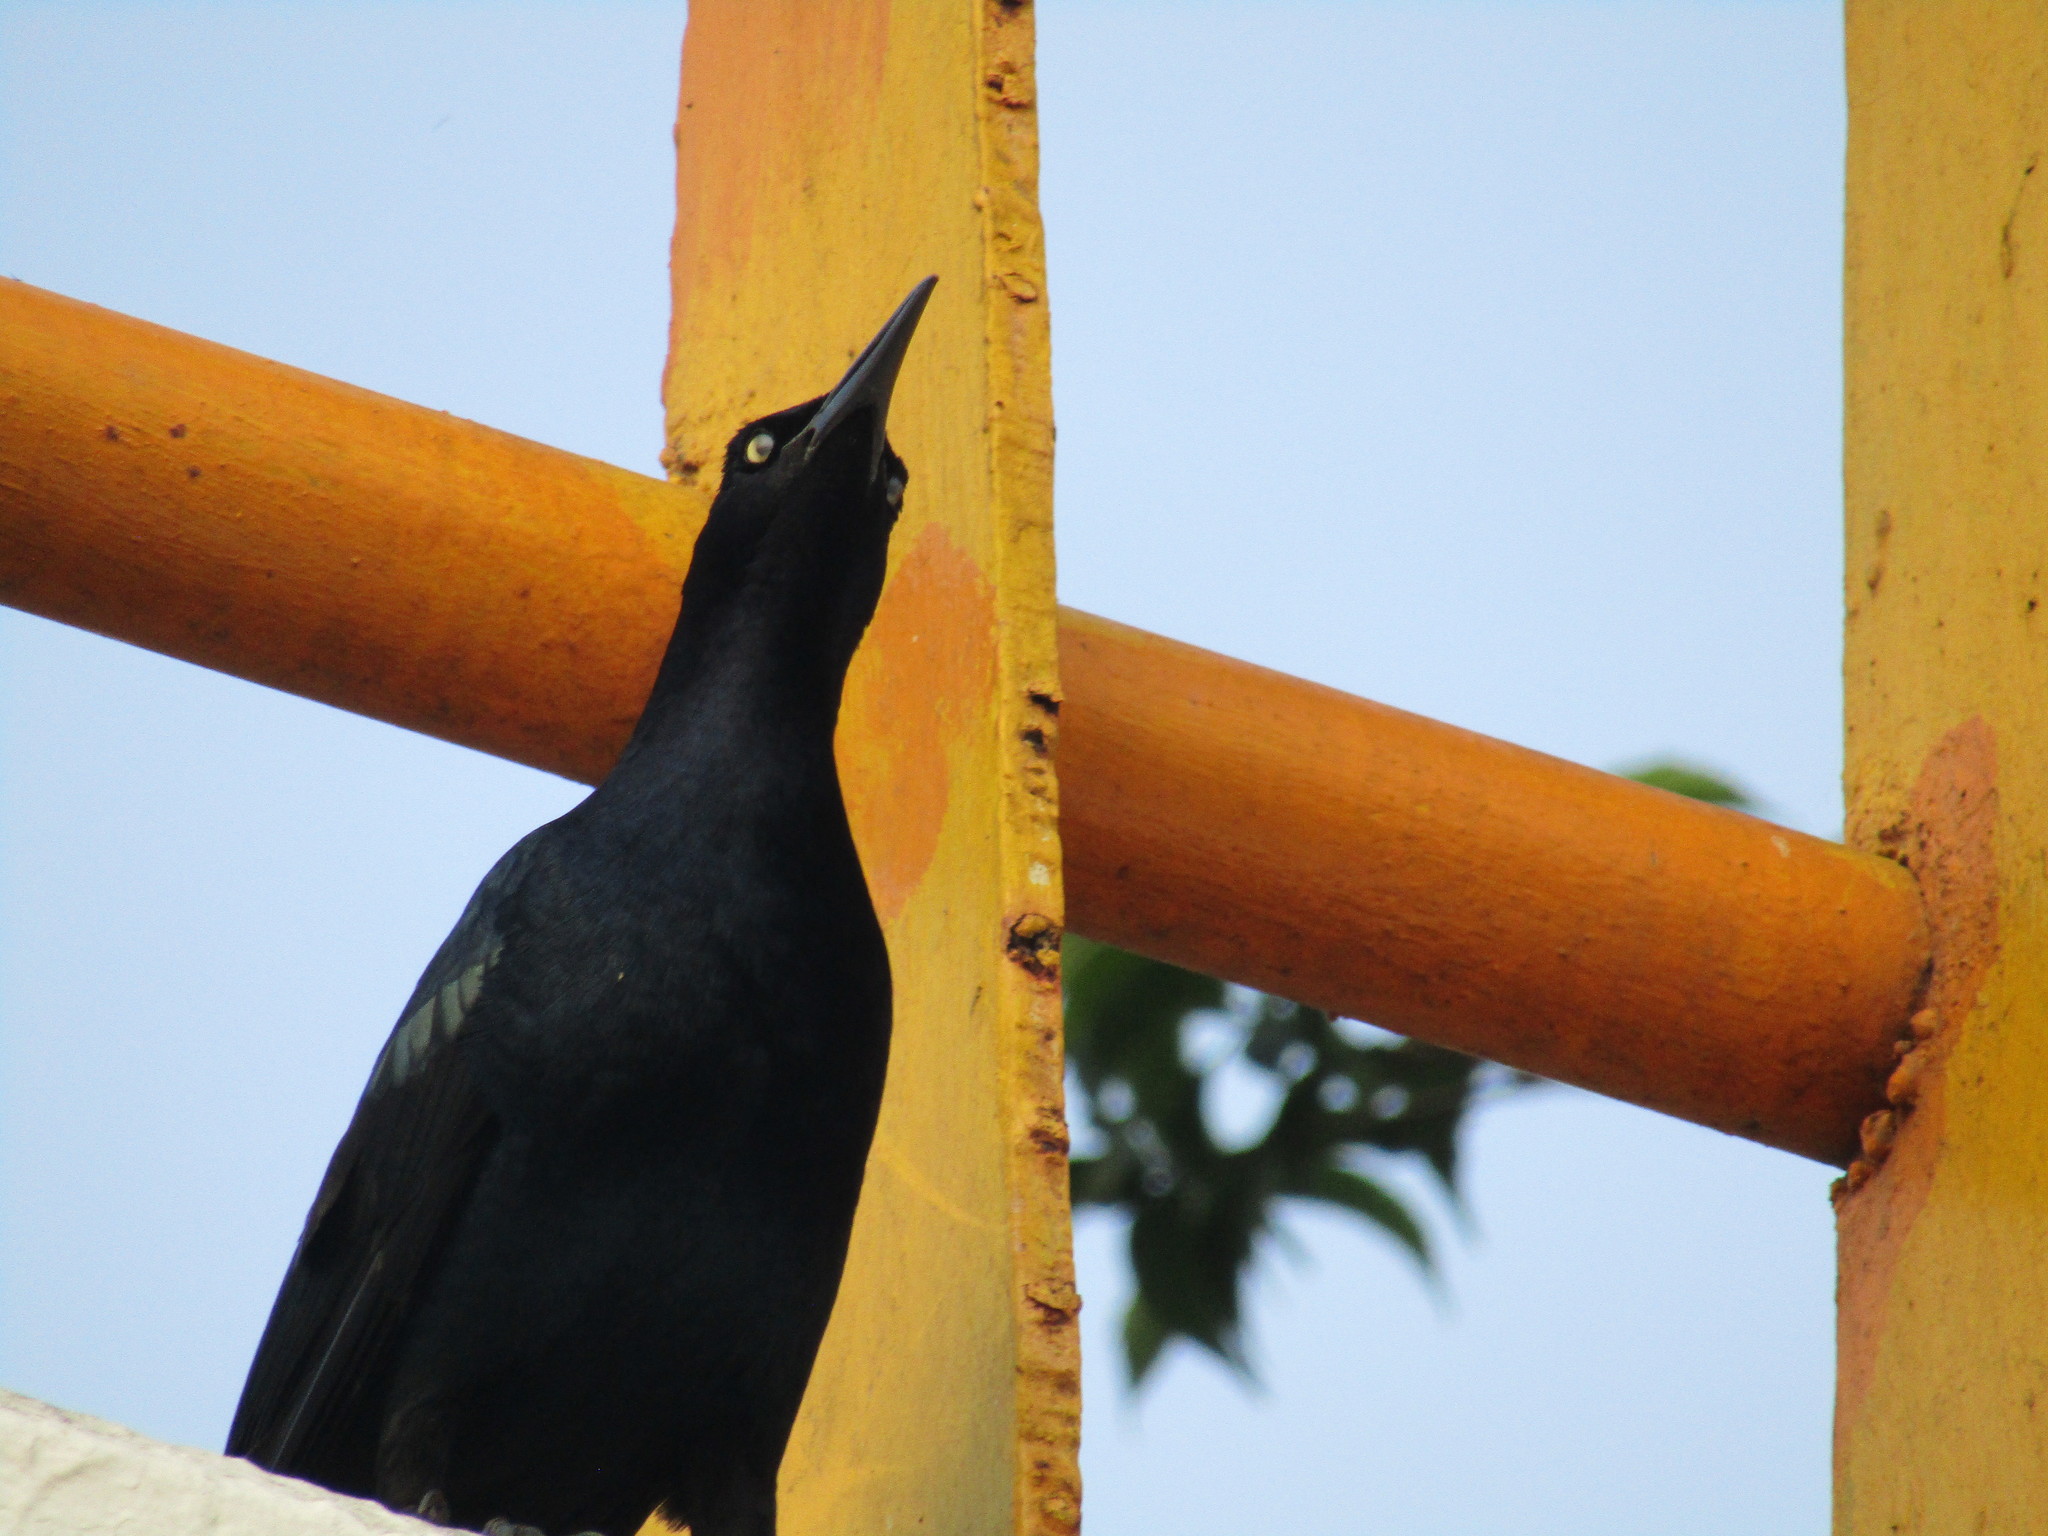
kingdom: Animalia
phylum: Chordata
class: Aves
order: Passeriformes
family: Icteridae
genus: Quiscalus
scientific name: Quiscalus mexicanus
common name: Great-tailed grackle
